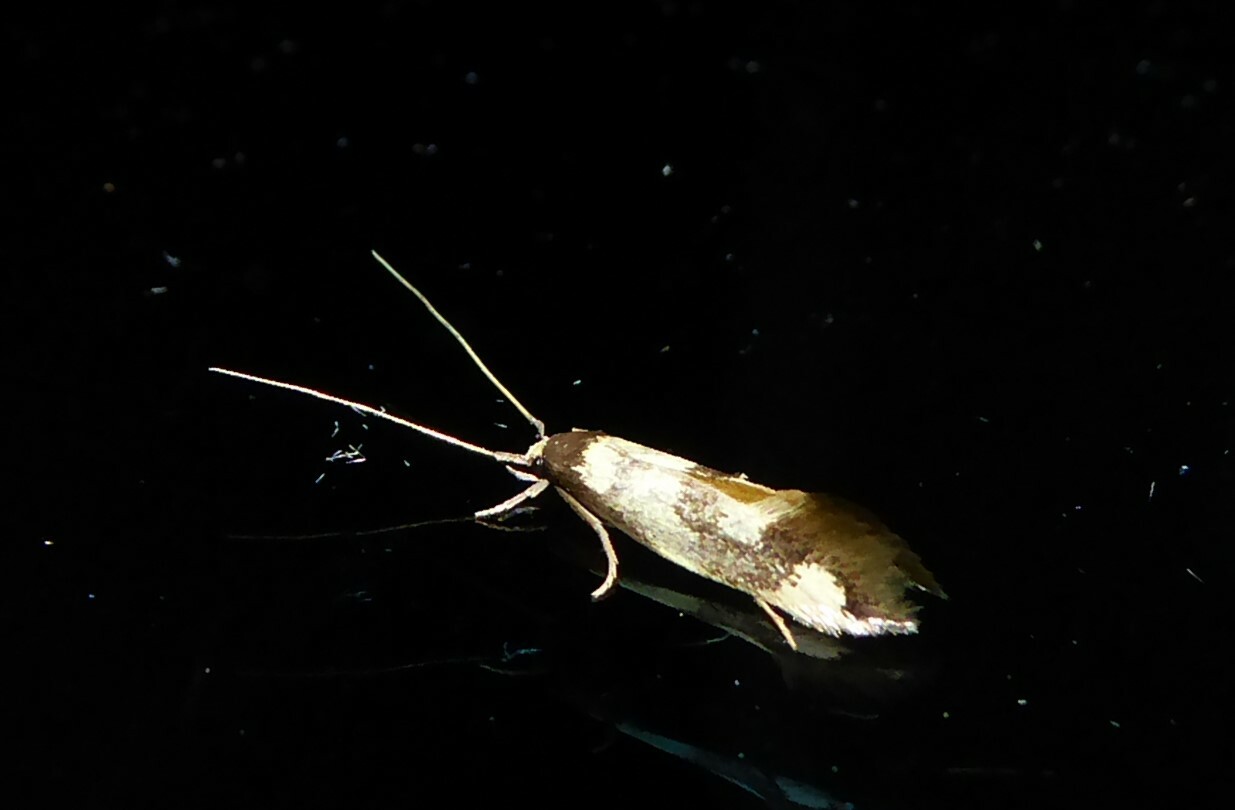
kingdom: Animalia
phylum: Arthropoda
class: Insecta
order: Lepidoptera
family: Tineidae
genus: Opogona
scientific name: Opogona comptella
